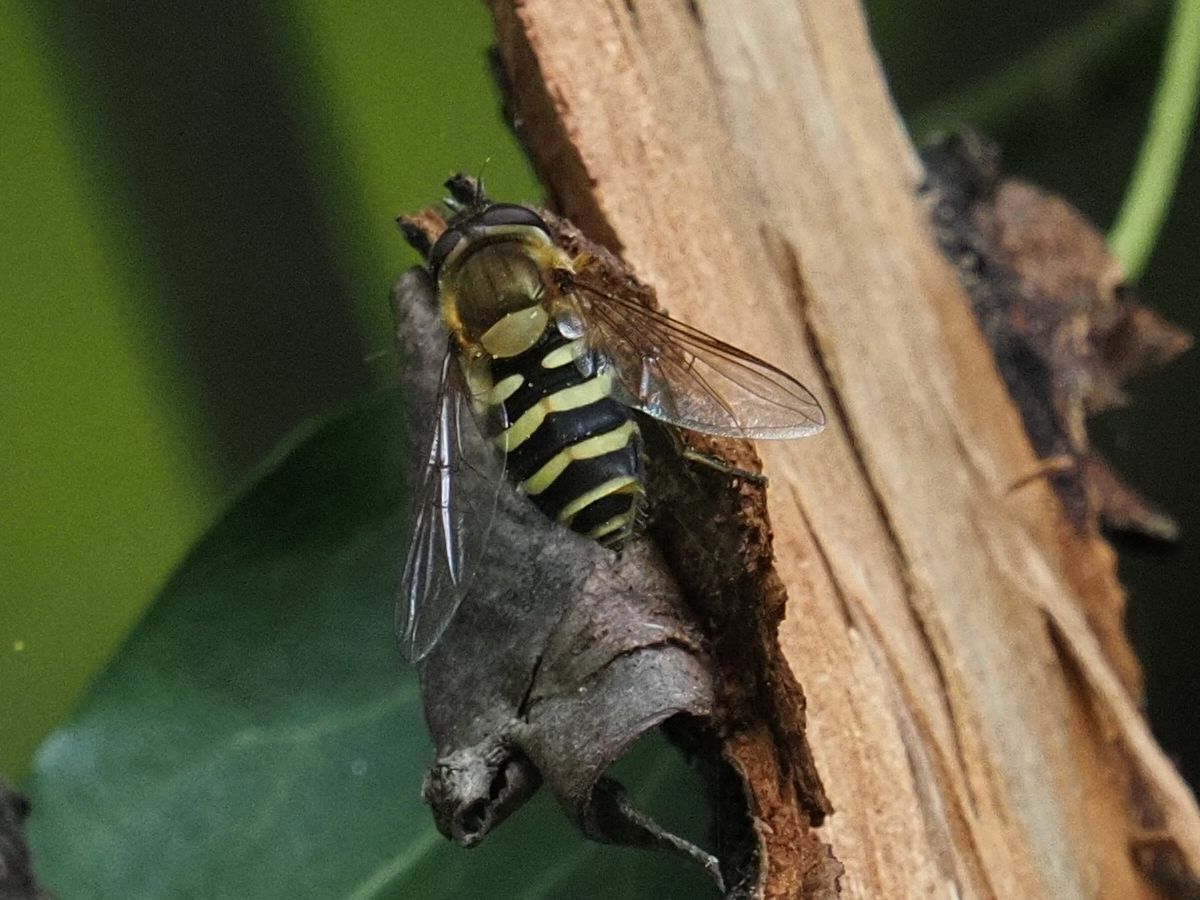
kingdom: Animalia
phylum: Arthropoda
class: Insecta
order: Diptera
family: Syrphidae
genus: Syrphus
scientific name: Syrphus
